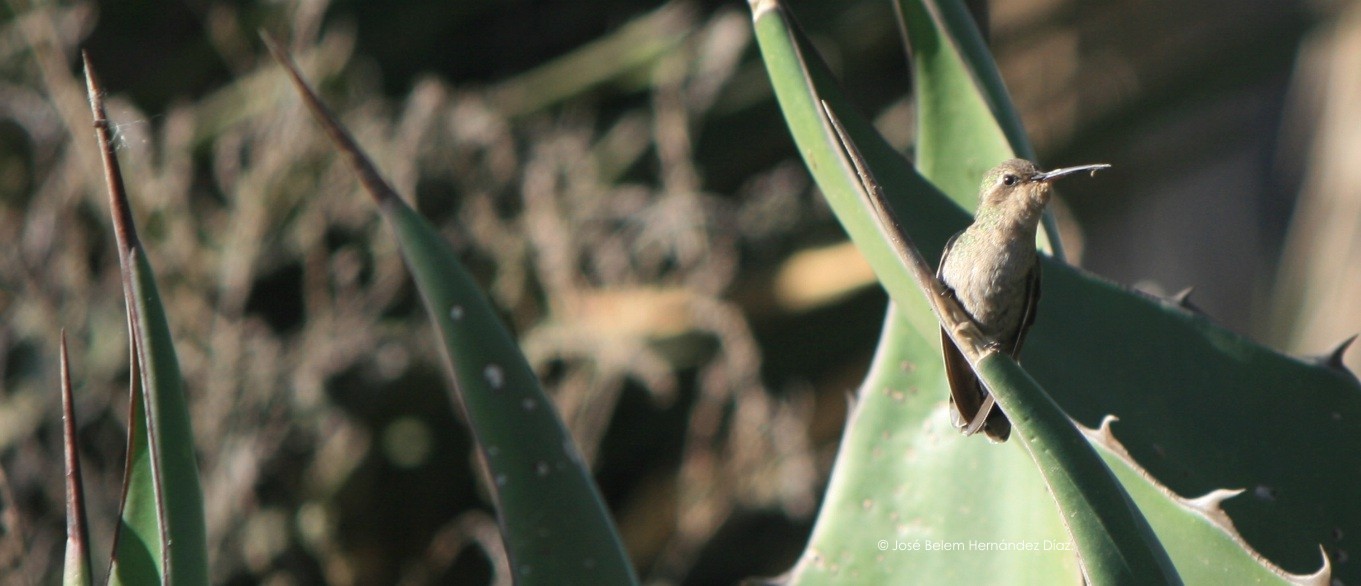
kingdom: Animalia
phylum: Chordata
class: Aves
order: Apodiformes
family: Trochilidae
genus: Cynanthus
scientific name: Cynanthus latirostris
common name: Broad-billed hummingbird
